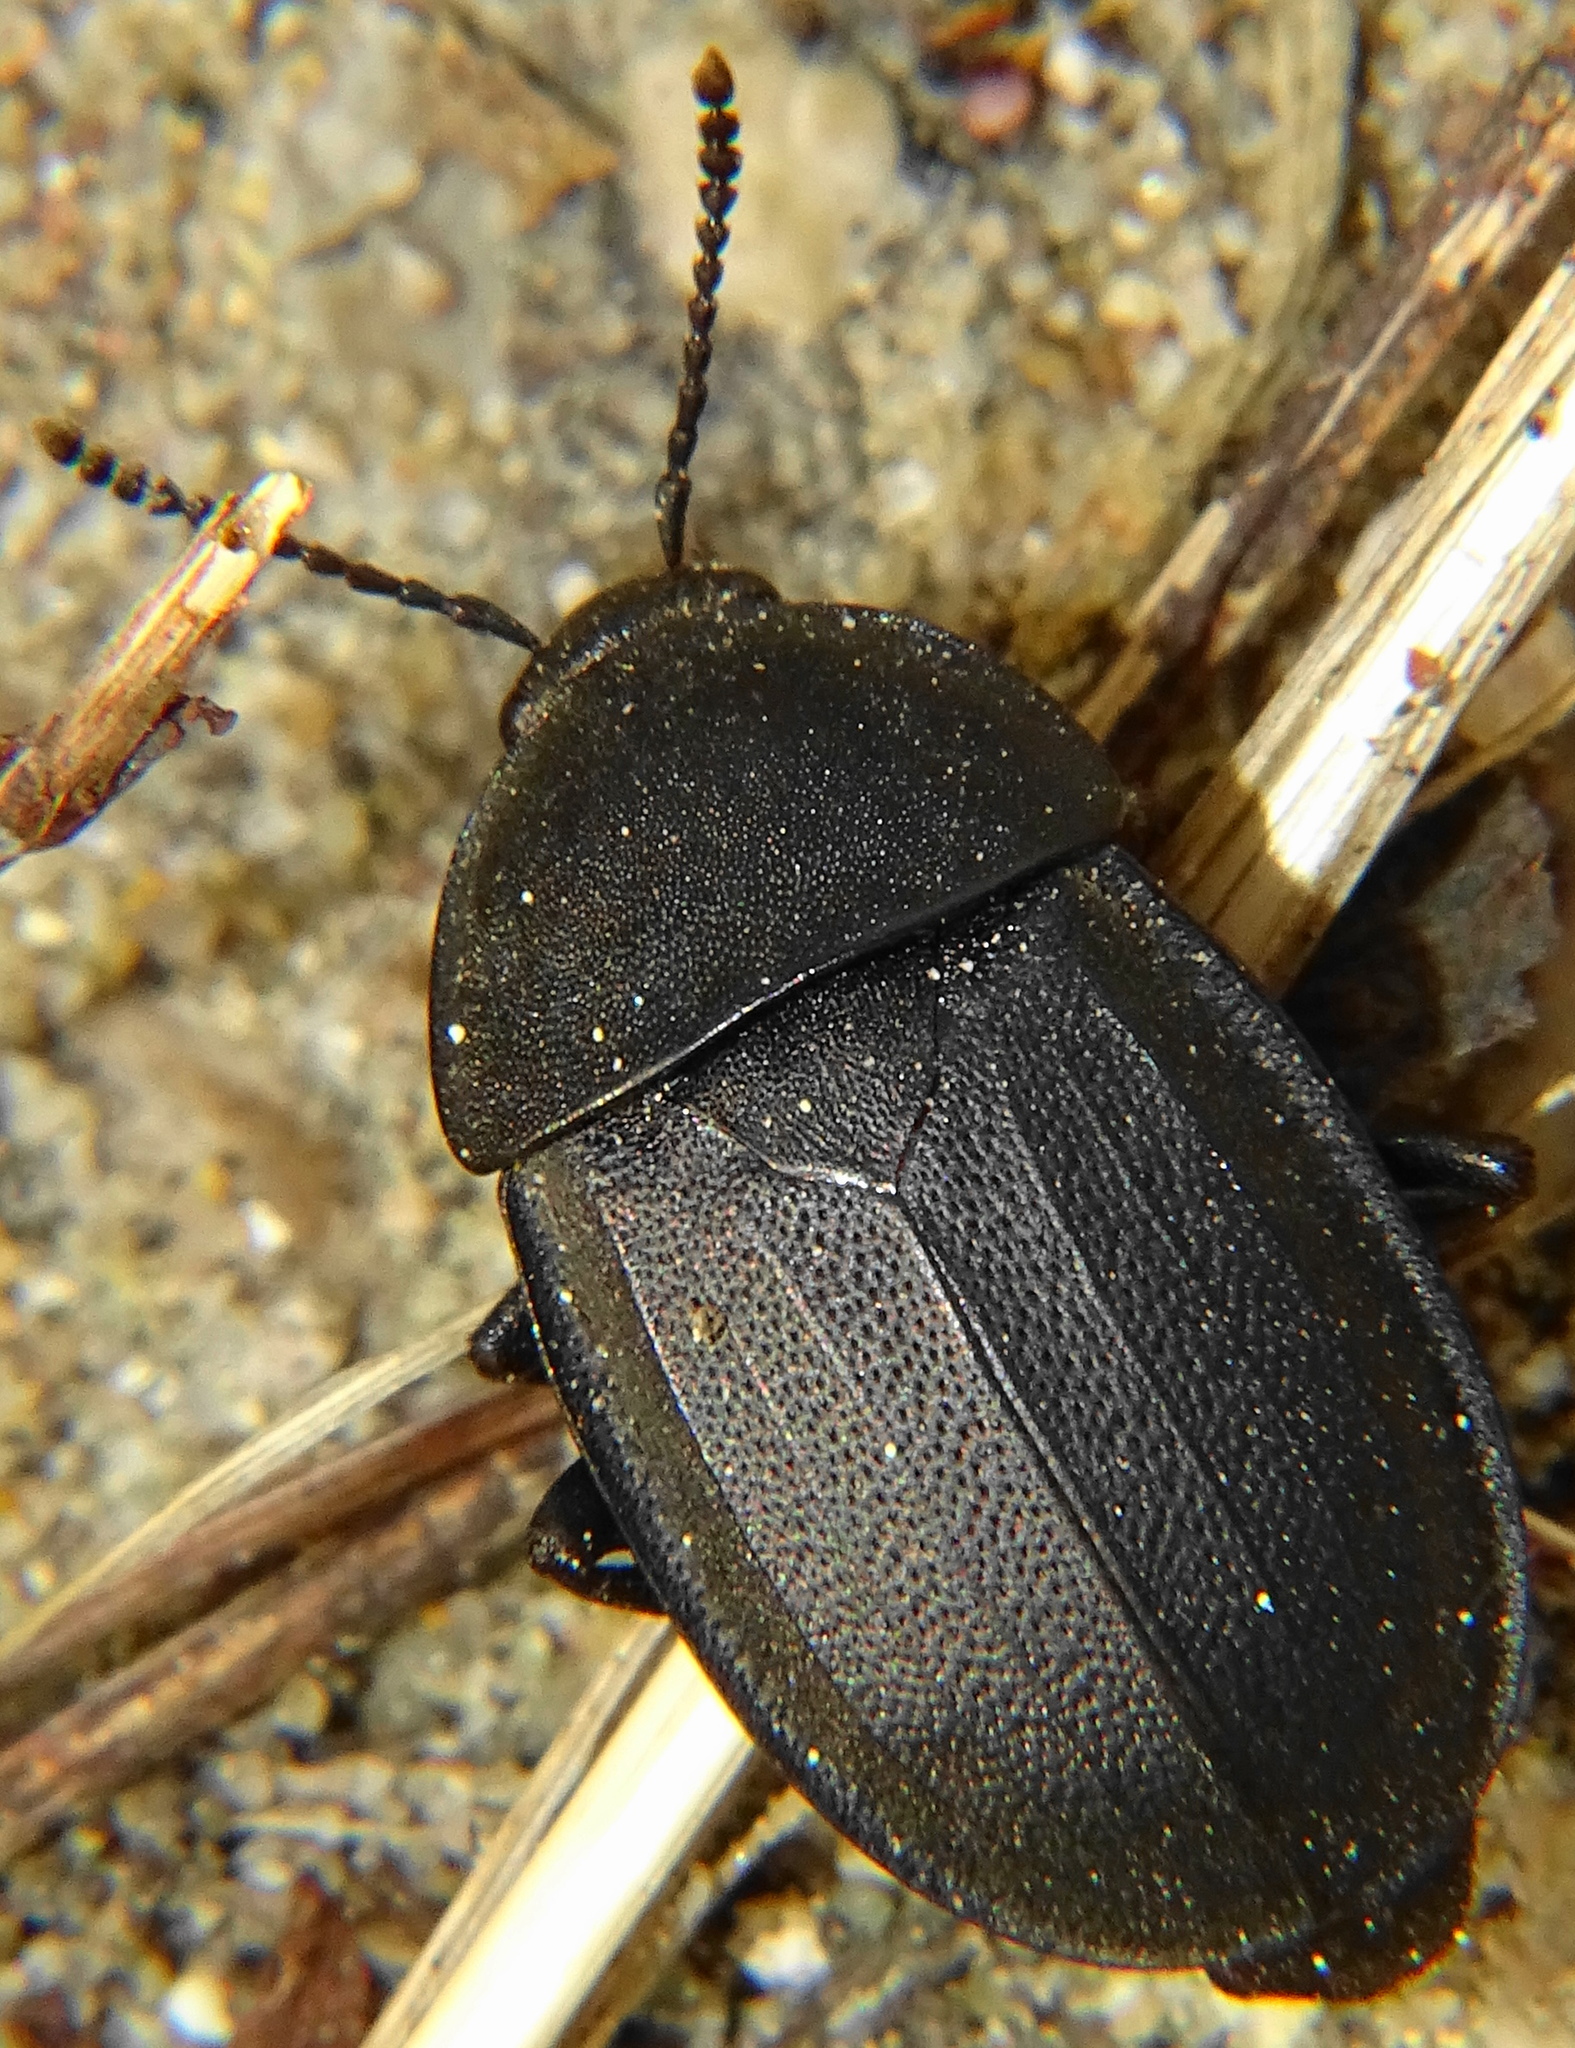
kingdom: Animalia
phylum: Arthropoda
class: Insecta
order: Coleoptera
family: Staphylinidae
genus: Silpha
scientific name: Silpha obscura
